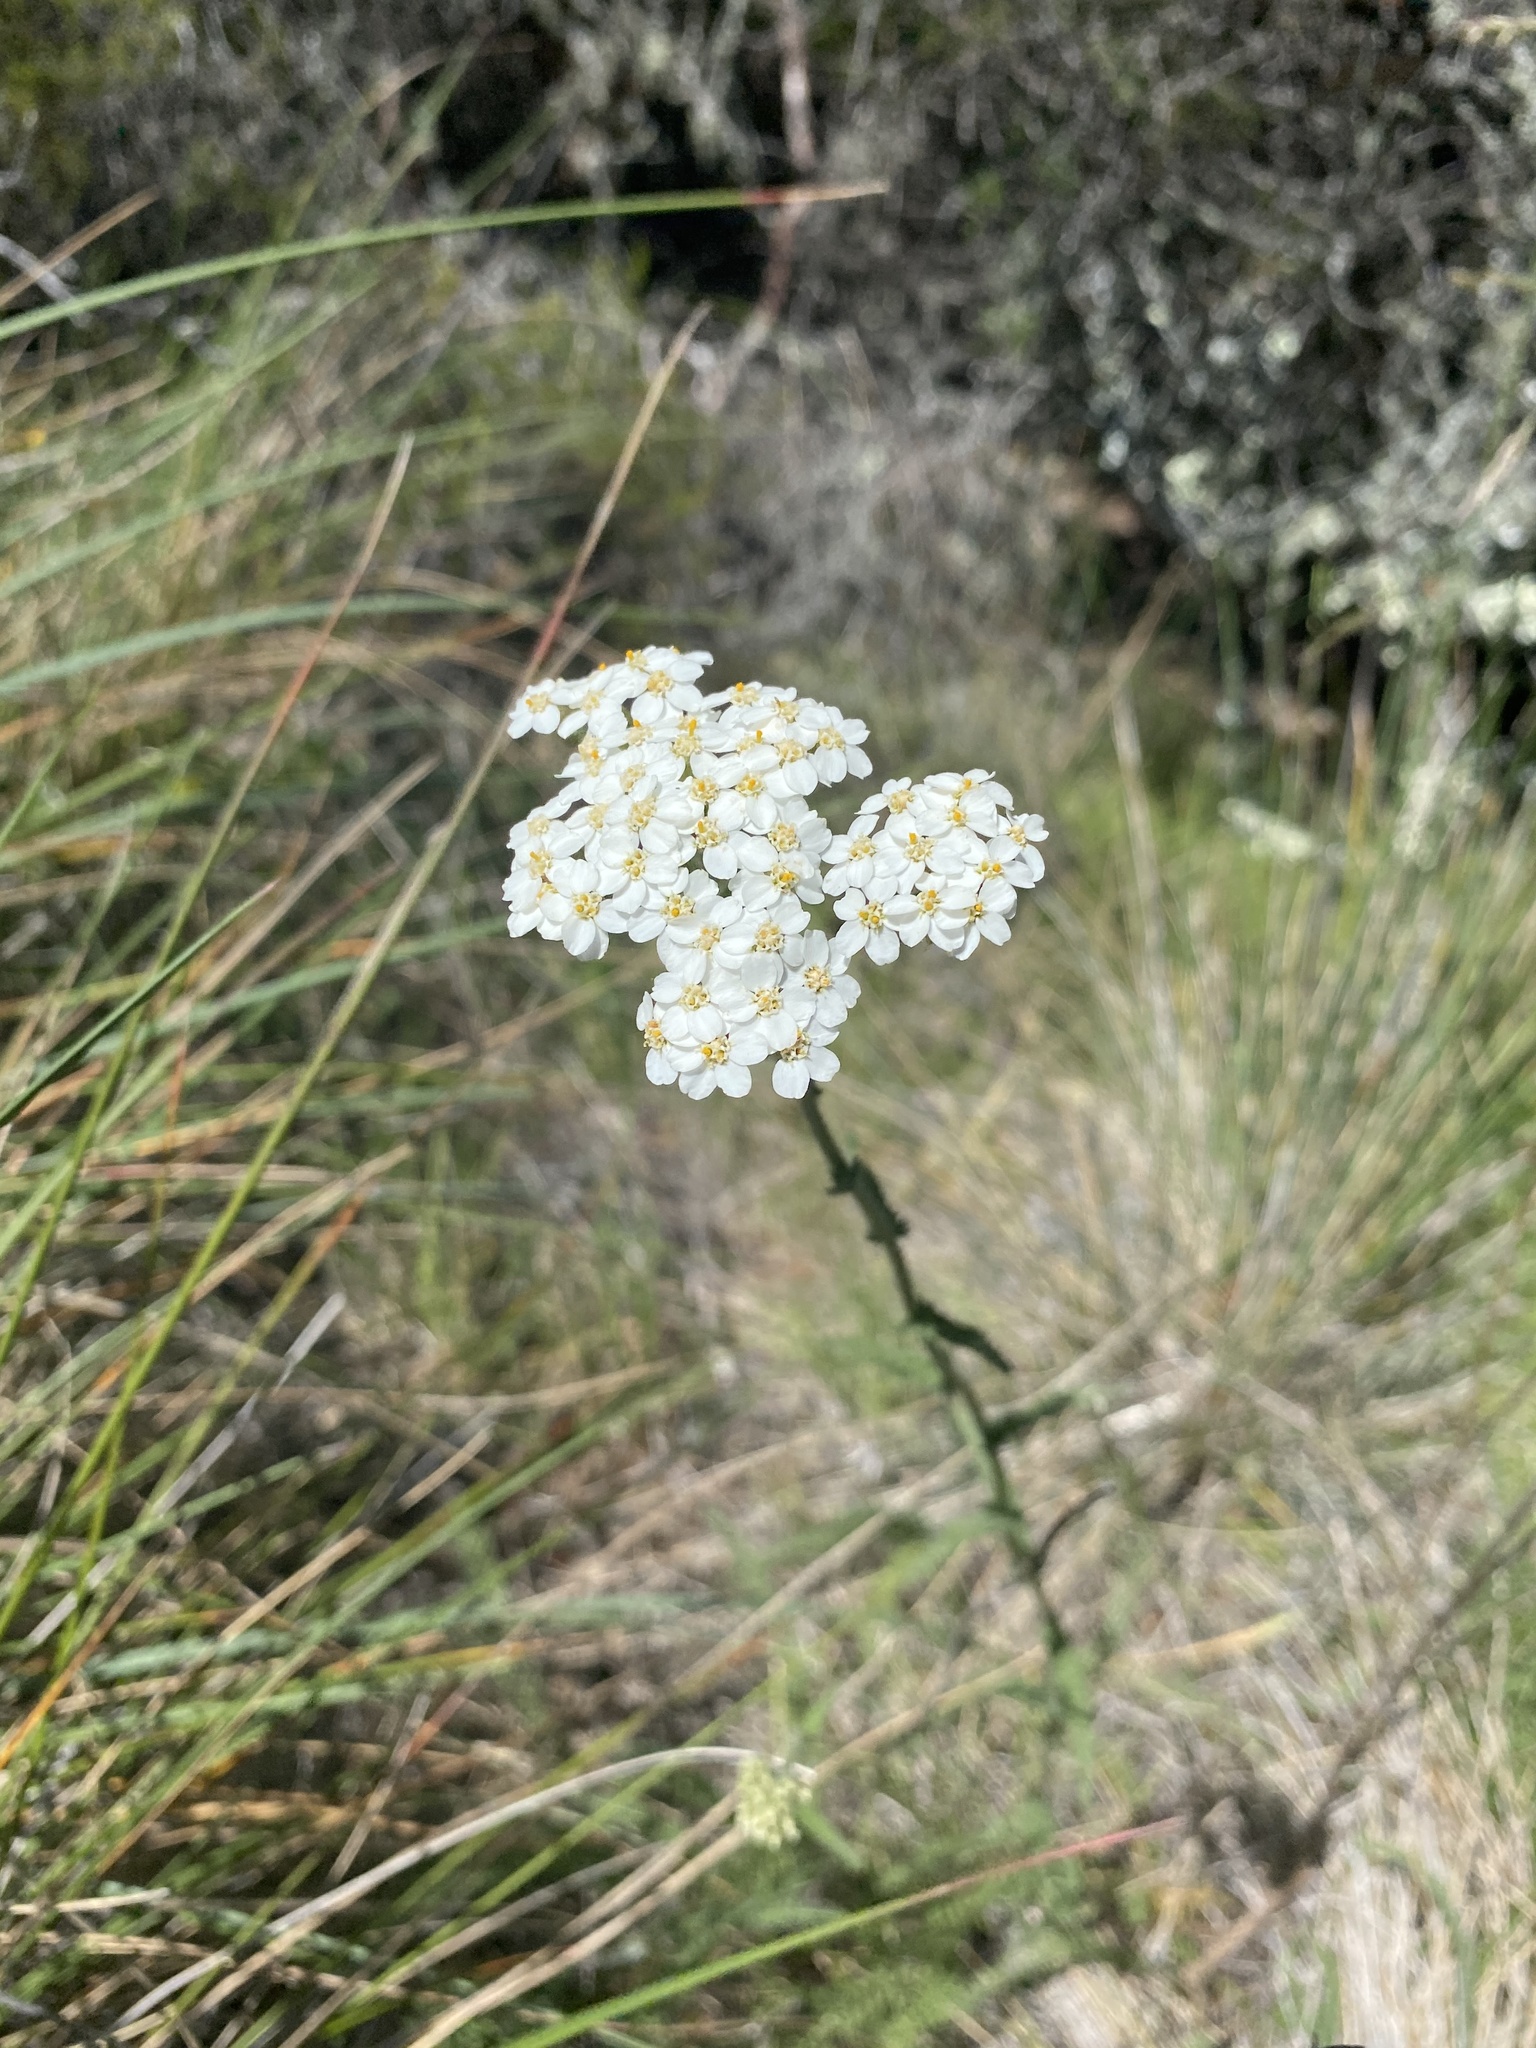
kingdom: Plantae
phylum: Tracheophyta
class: Magnoliopsida
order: Asterales
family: Asteraceae
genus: Achillea
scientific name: Achillea millefolium
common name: Yarrow
